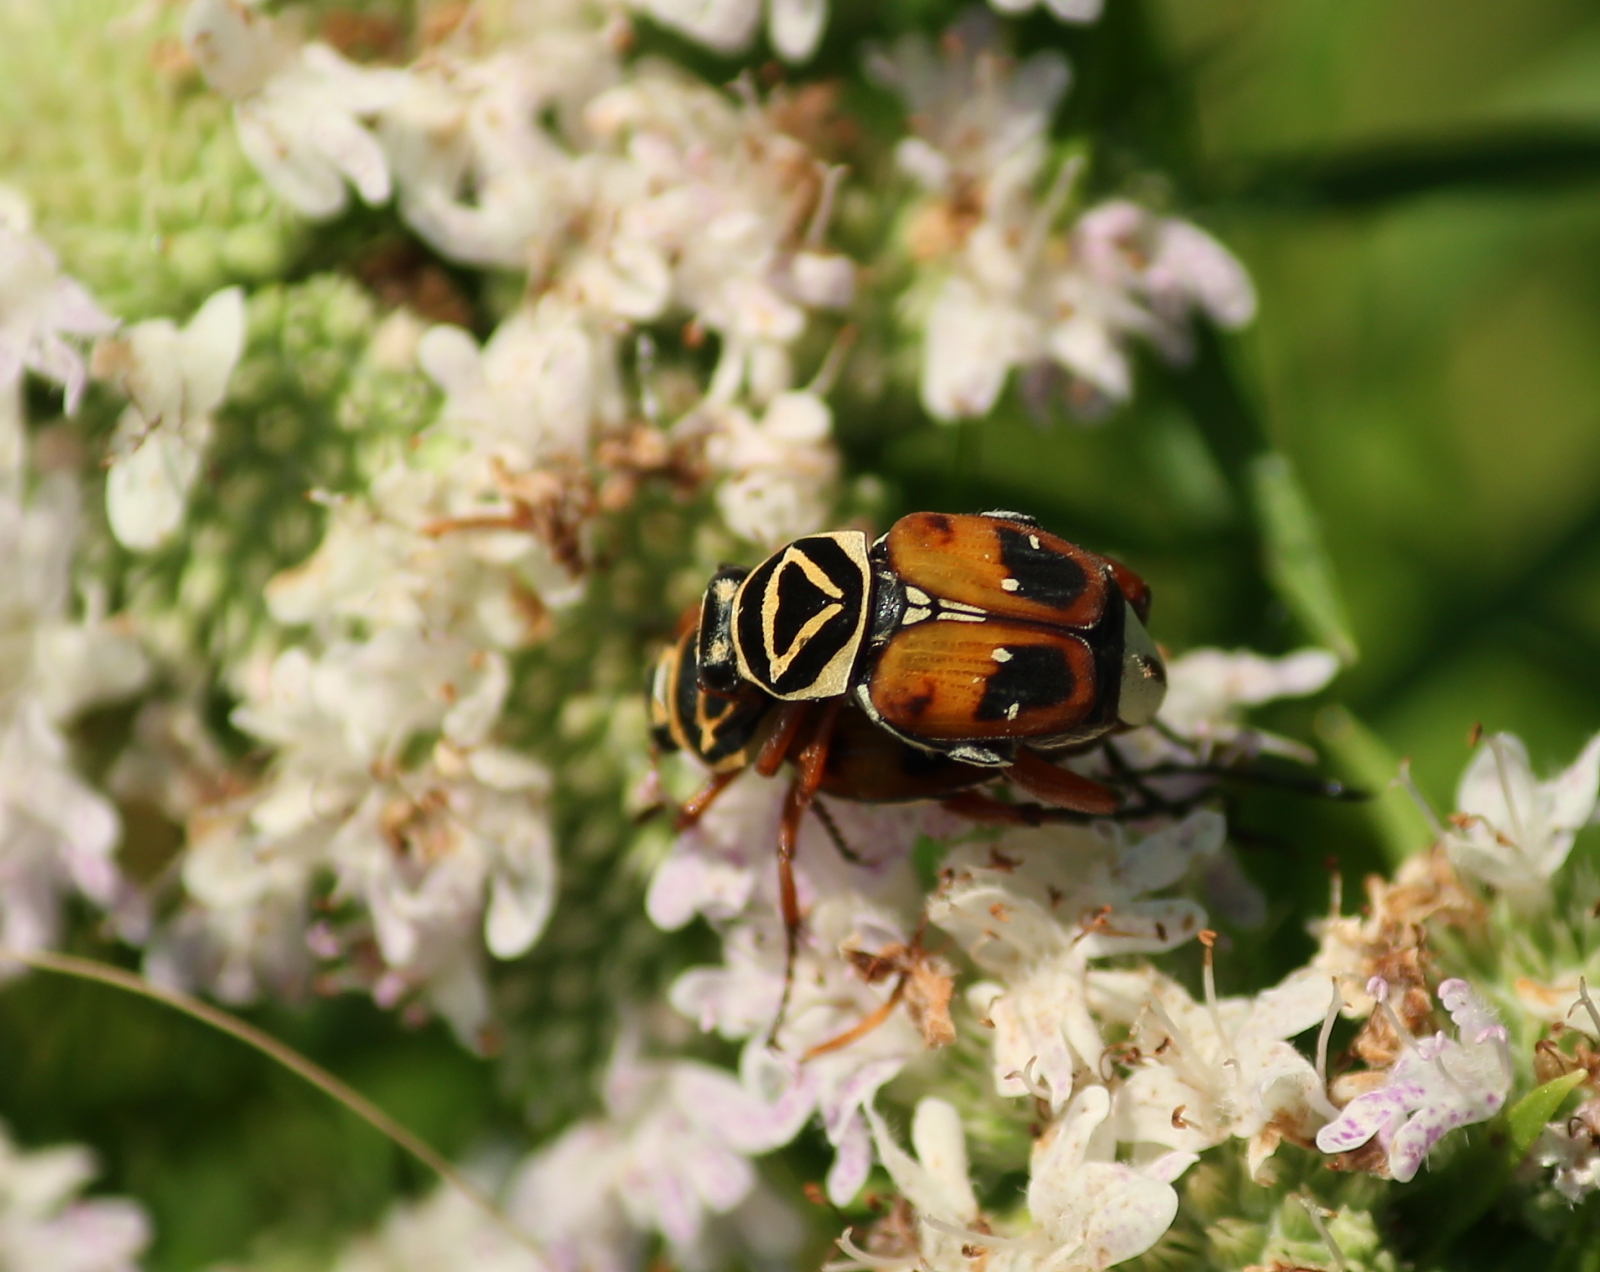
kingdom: Animalia
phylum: Arthropoda
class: Insecta
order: Coleoptera
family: Scarabaeidae
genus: Trigonopeltastes
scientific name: Trigonopeltastes delta
